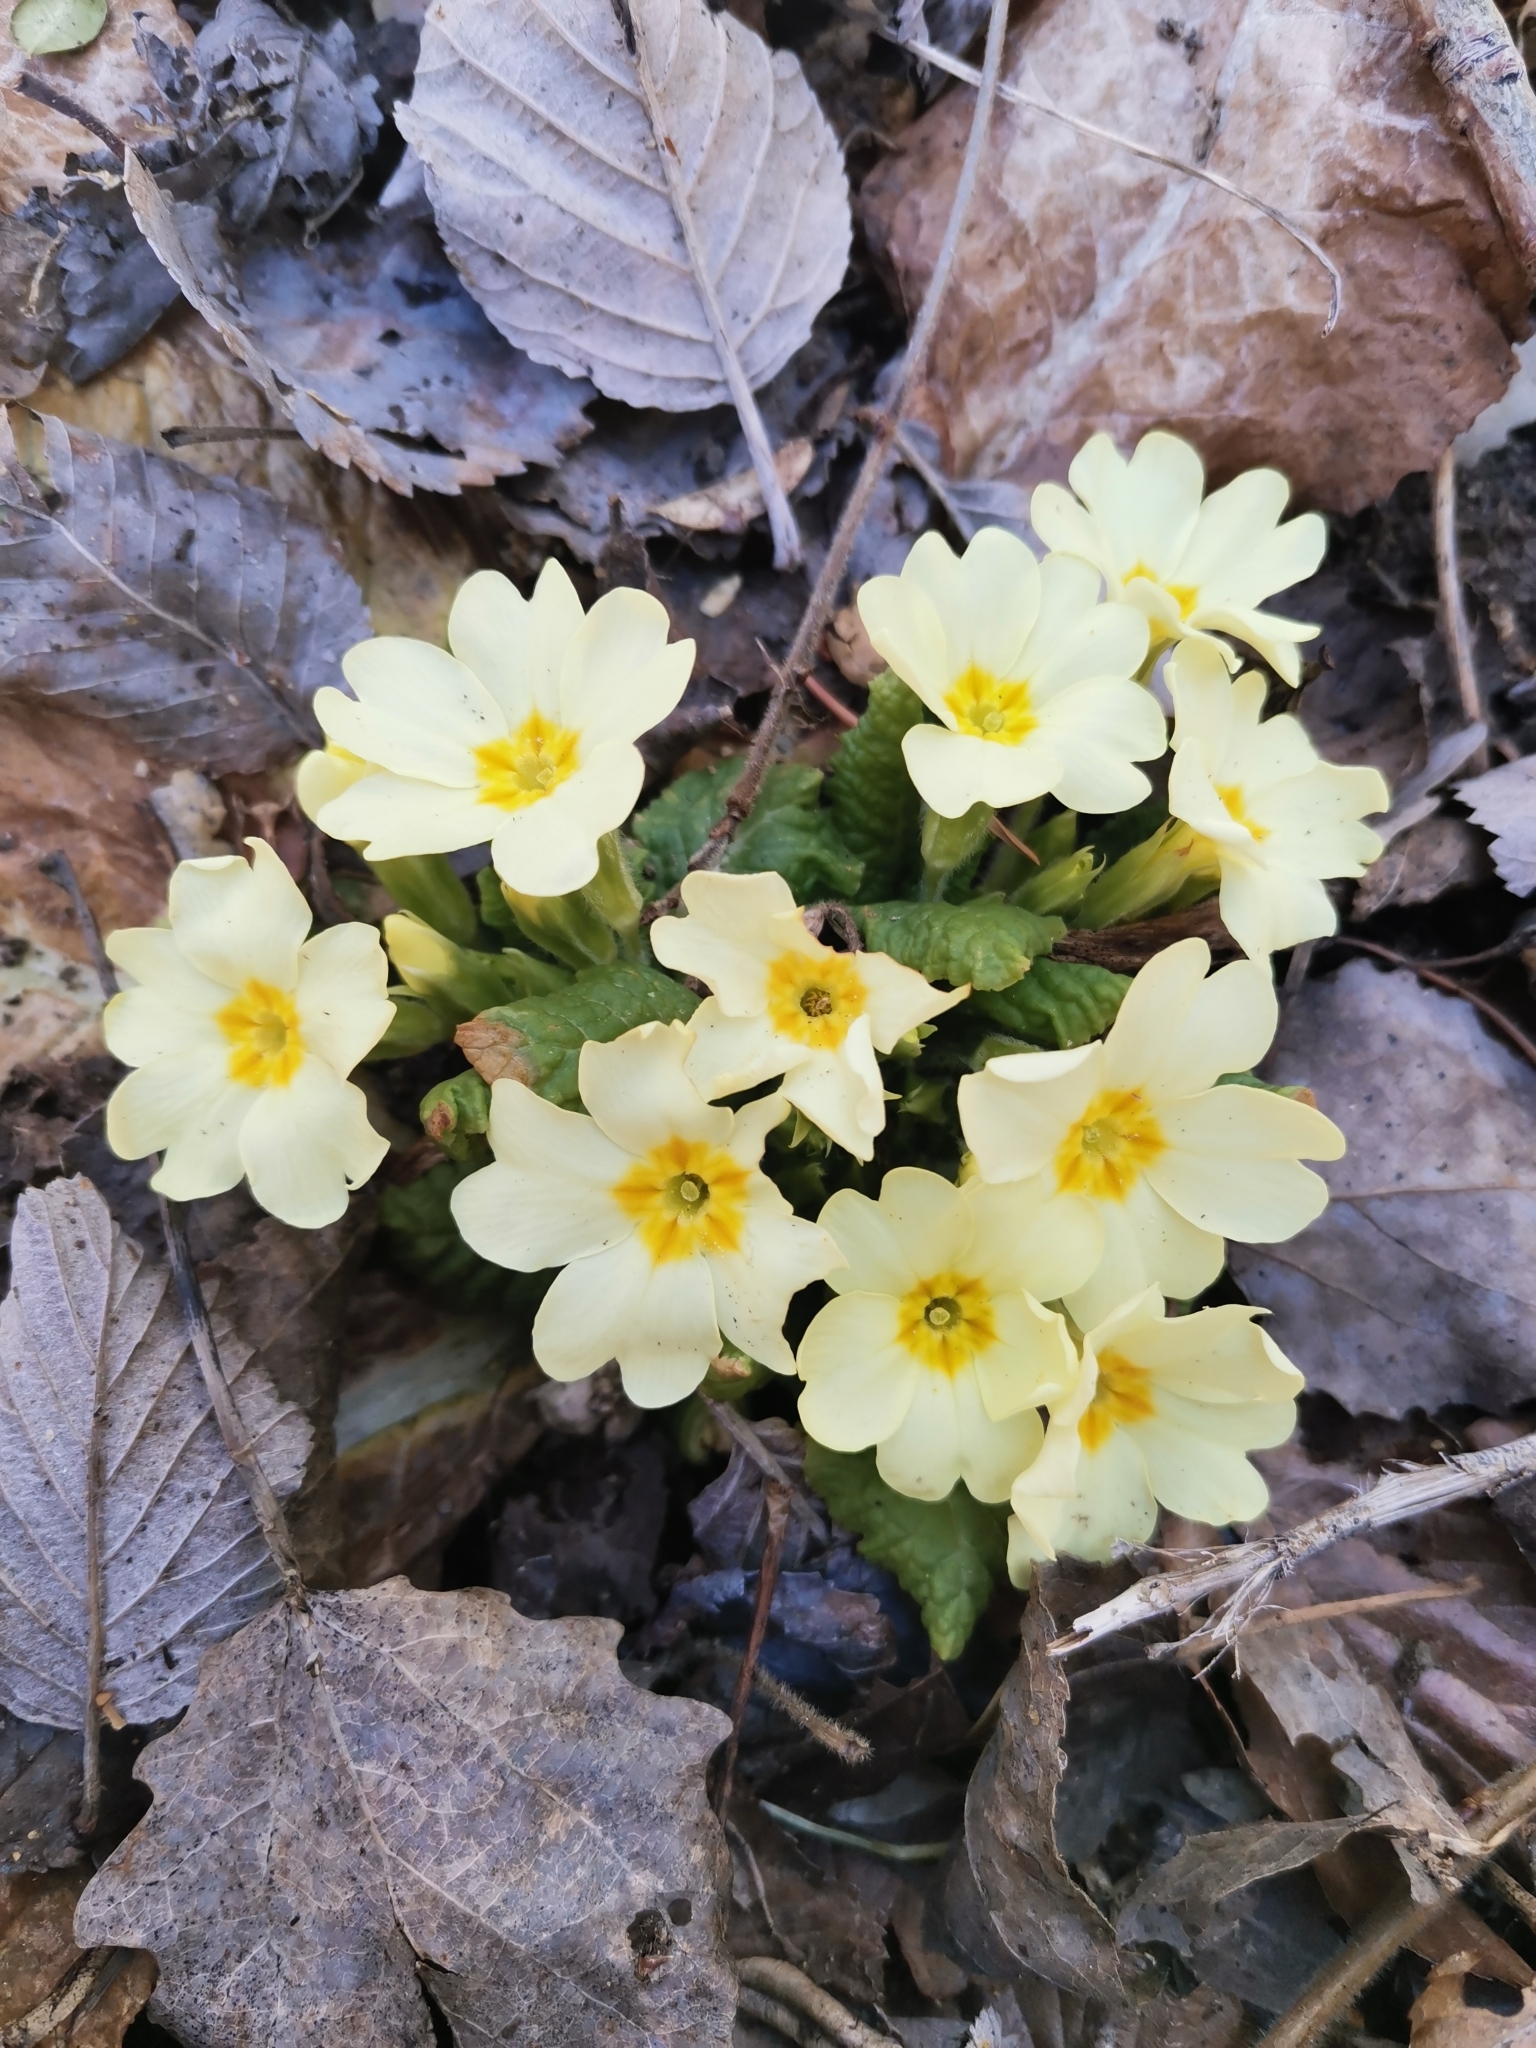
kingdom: Plantae
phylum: Tracheophyta
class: Magnoliopsida
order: Ericales
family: Primulaceae
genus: Primula
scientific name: Primula vulgaris
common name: Primrose
